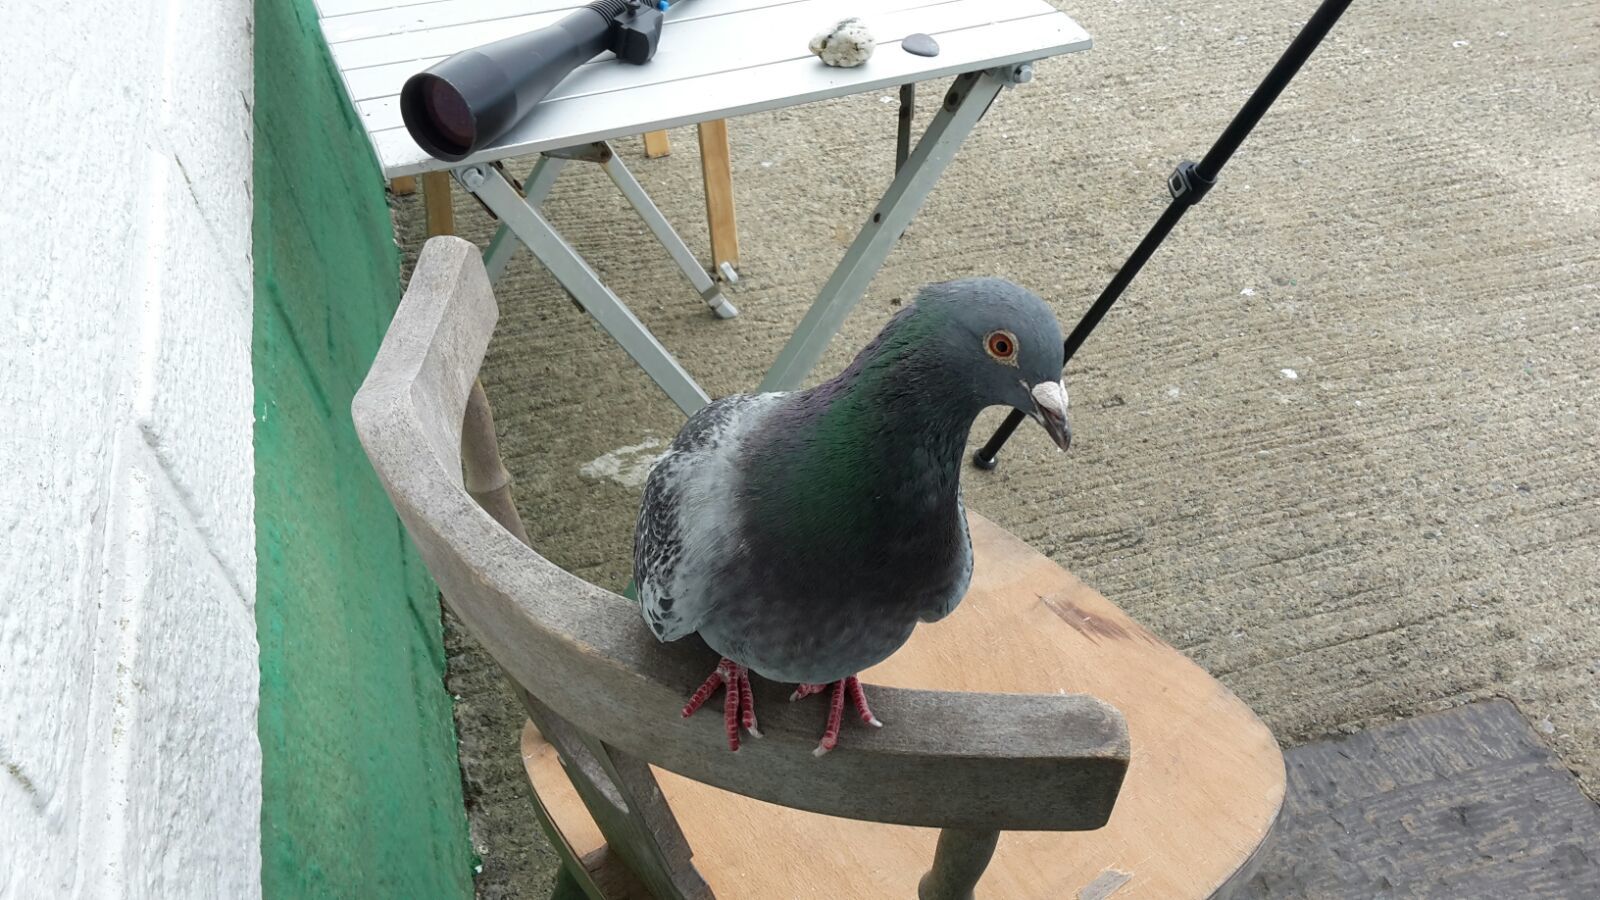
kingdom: Animalia
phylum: Chordata
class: Aves
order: Columbiformes
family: Columbidae
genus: Columba
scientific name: Columba livia
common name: Rock pigeon
